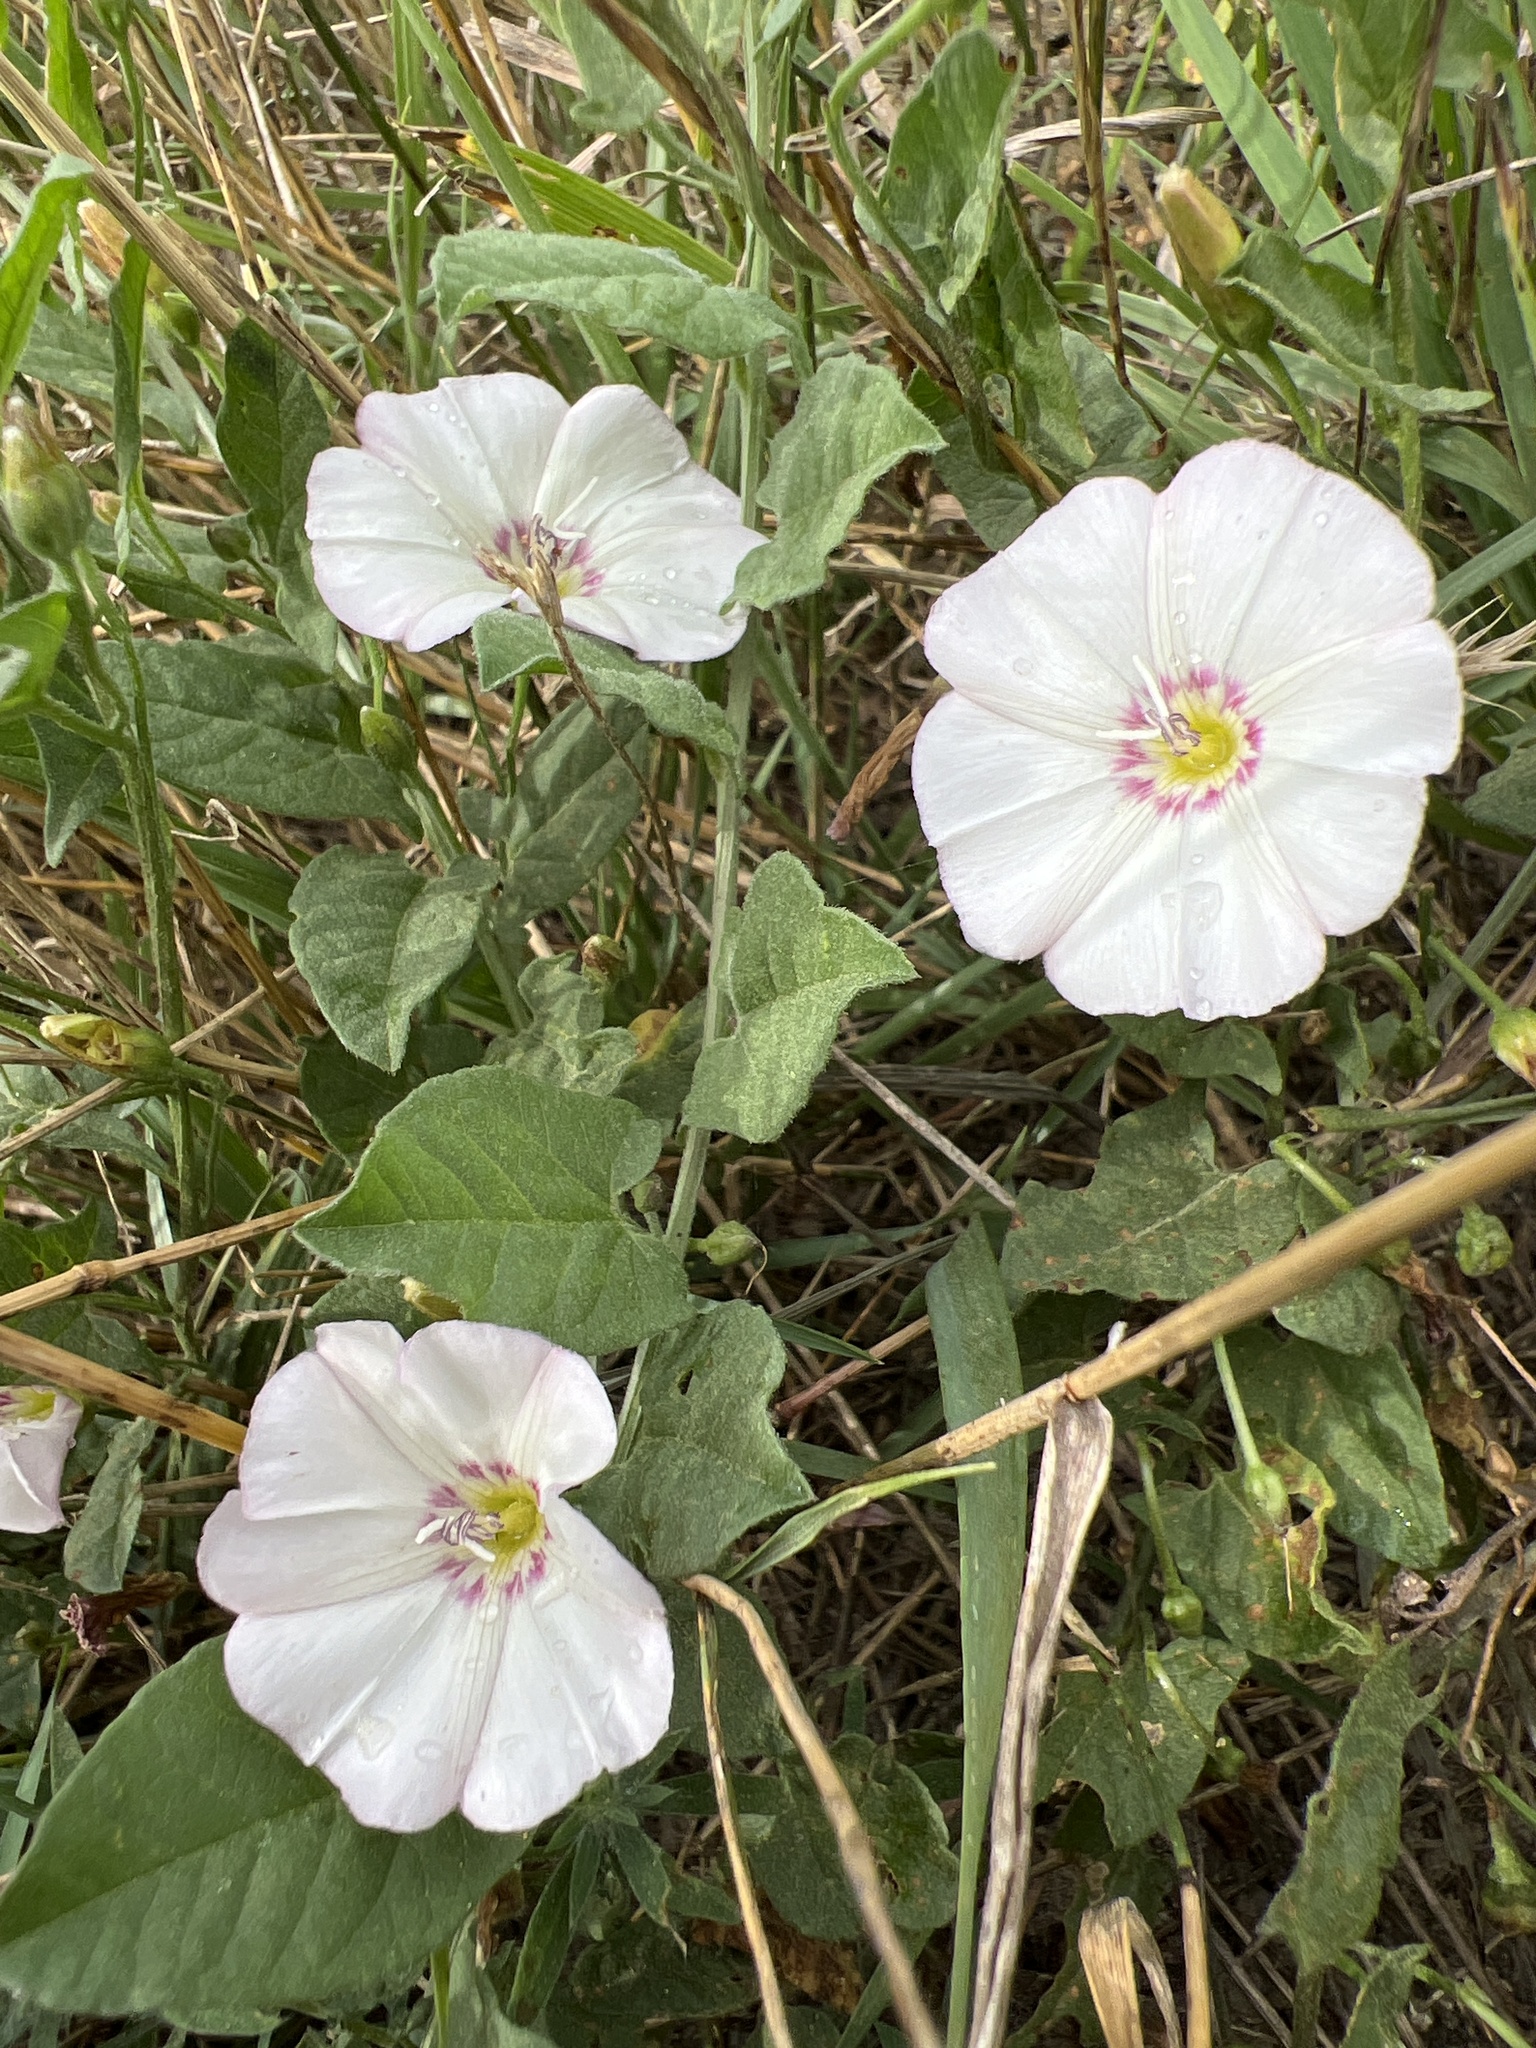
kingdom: Plantae
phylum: Tracheophyta
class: Magnoliopsida
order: Solanales
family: Convolvulaceae
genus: Convolvulus
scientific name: Convolvulus arvensis
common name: Field bindweed
